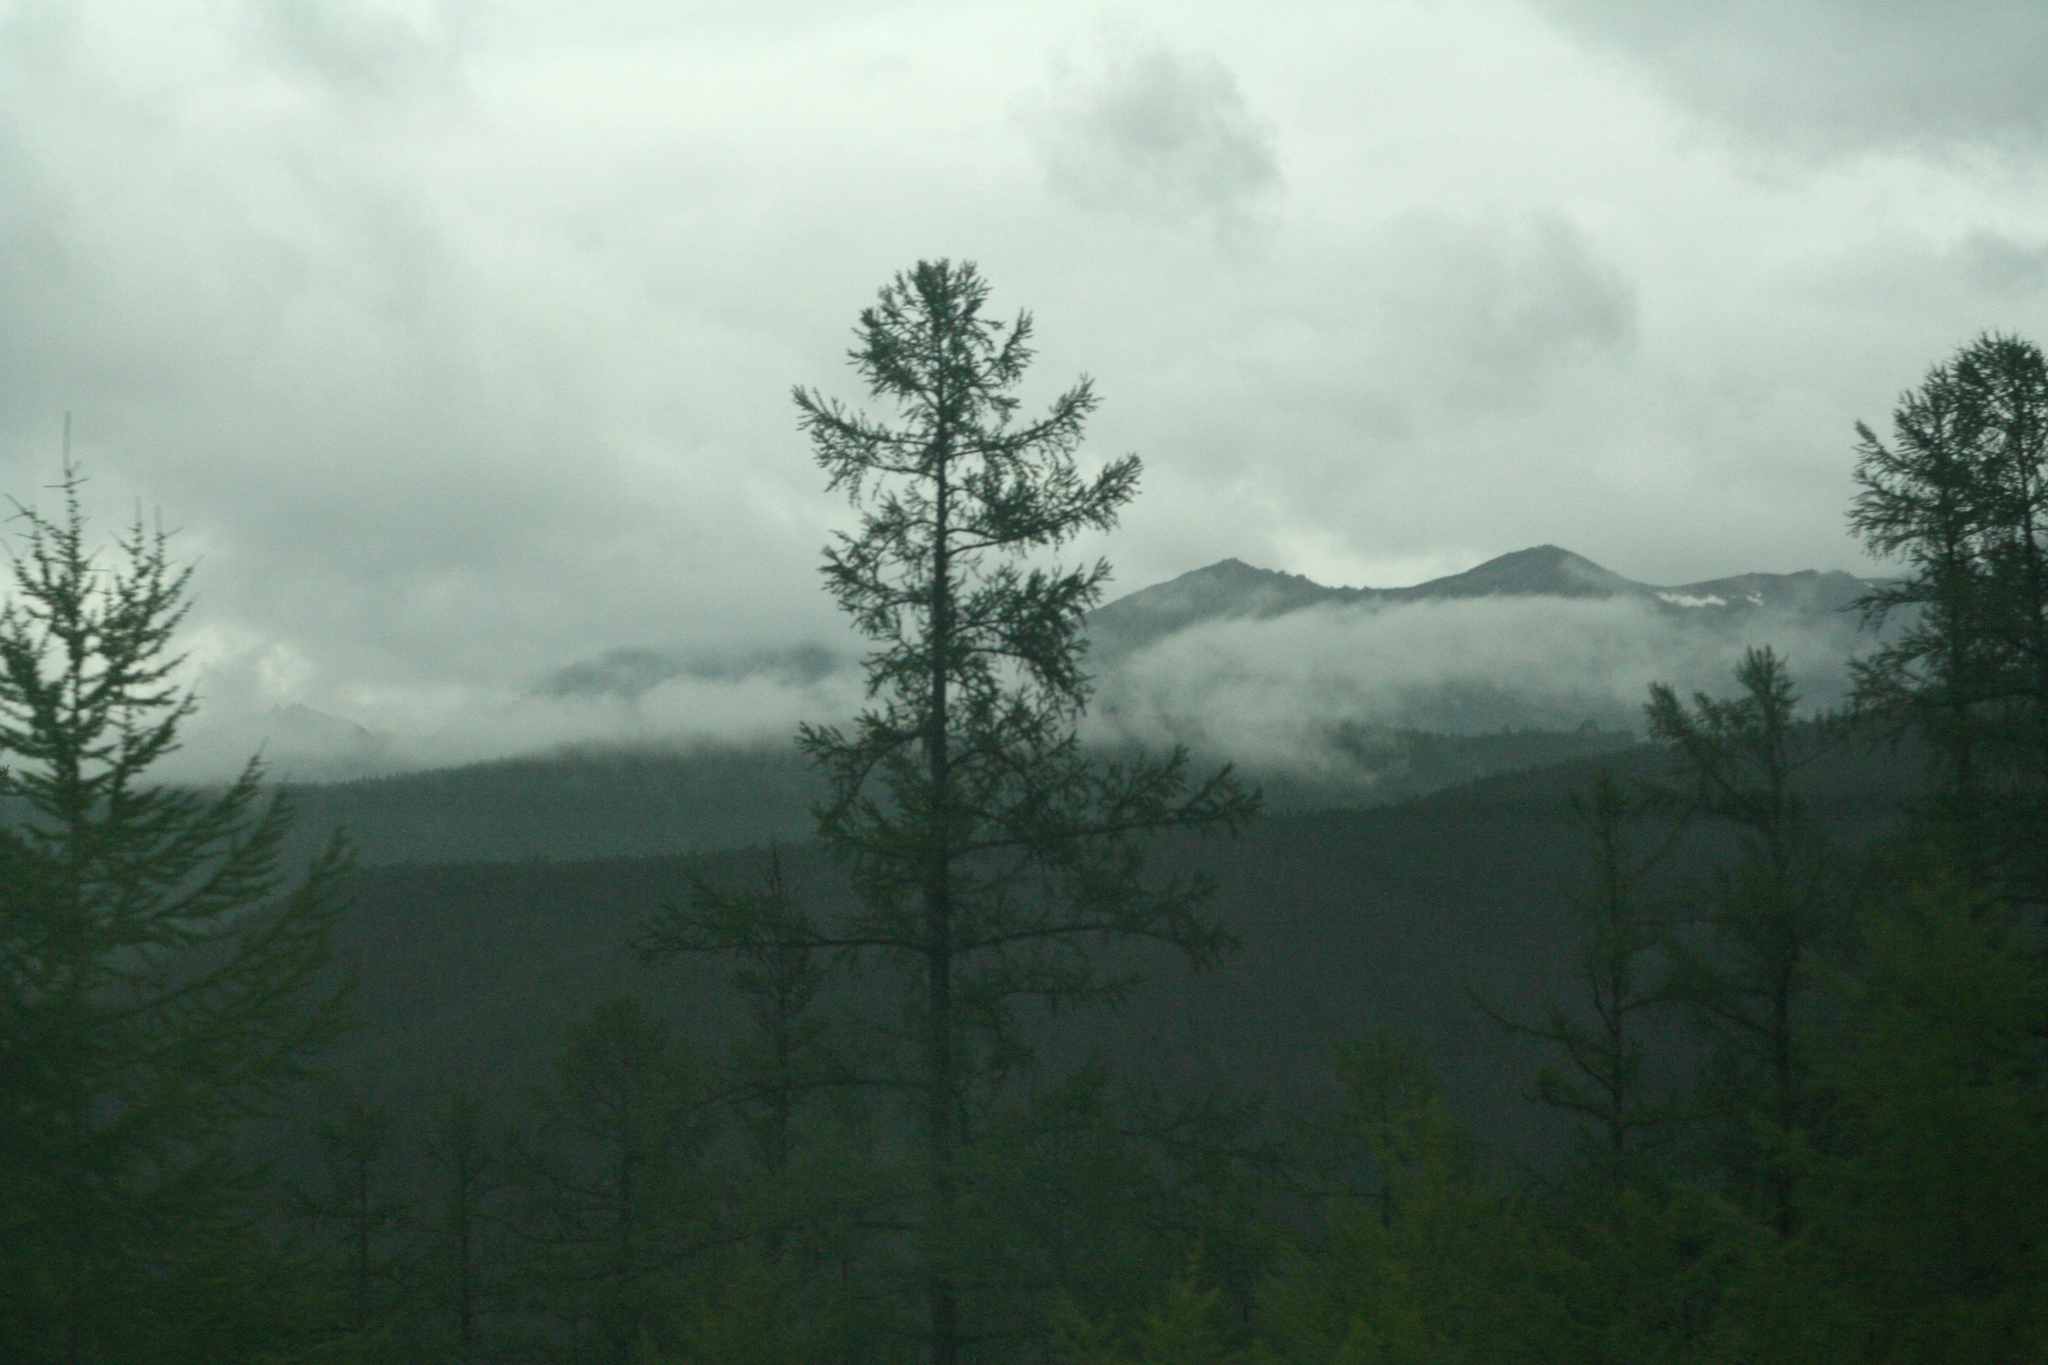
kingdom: Plantae
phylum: Tracheophyta
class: Pinopsida
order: Pinales
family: Pinaceae
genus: Larix
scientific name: Larix gmelinii
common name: Dahurian larch
